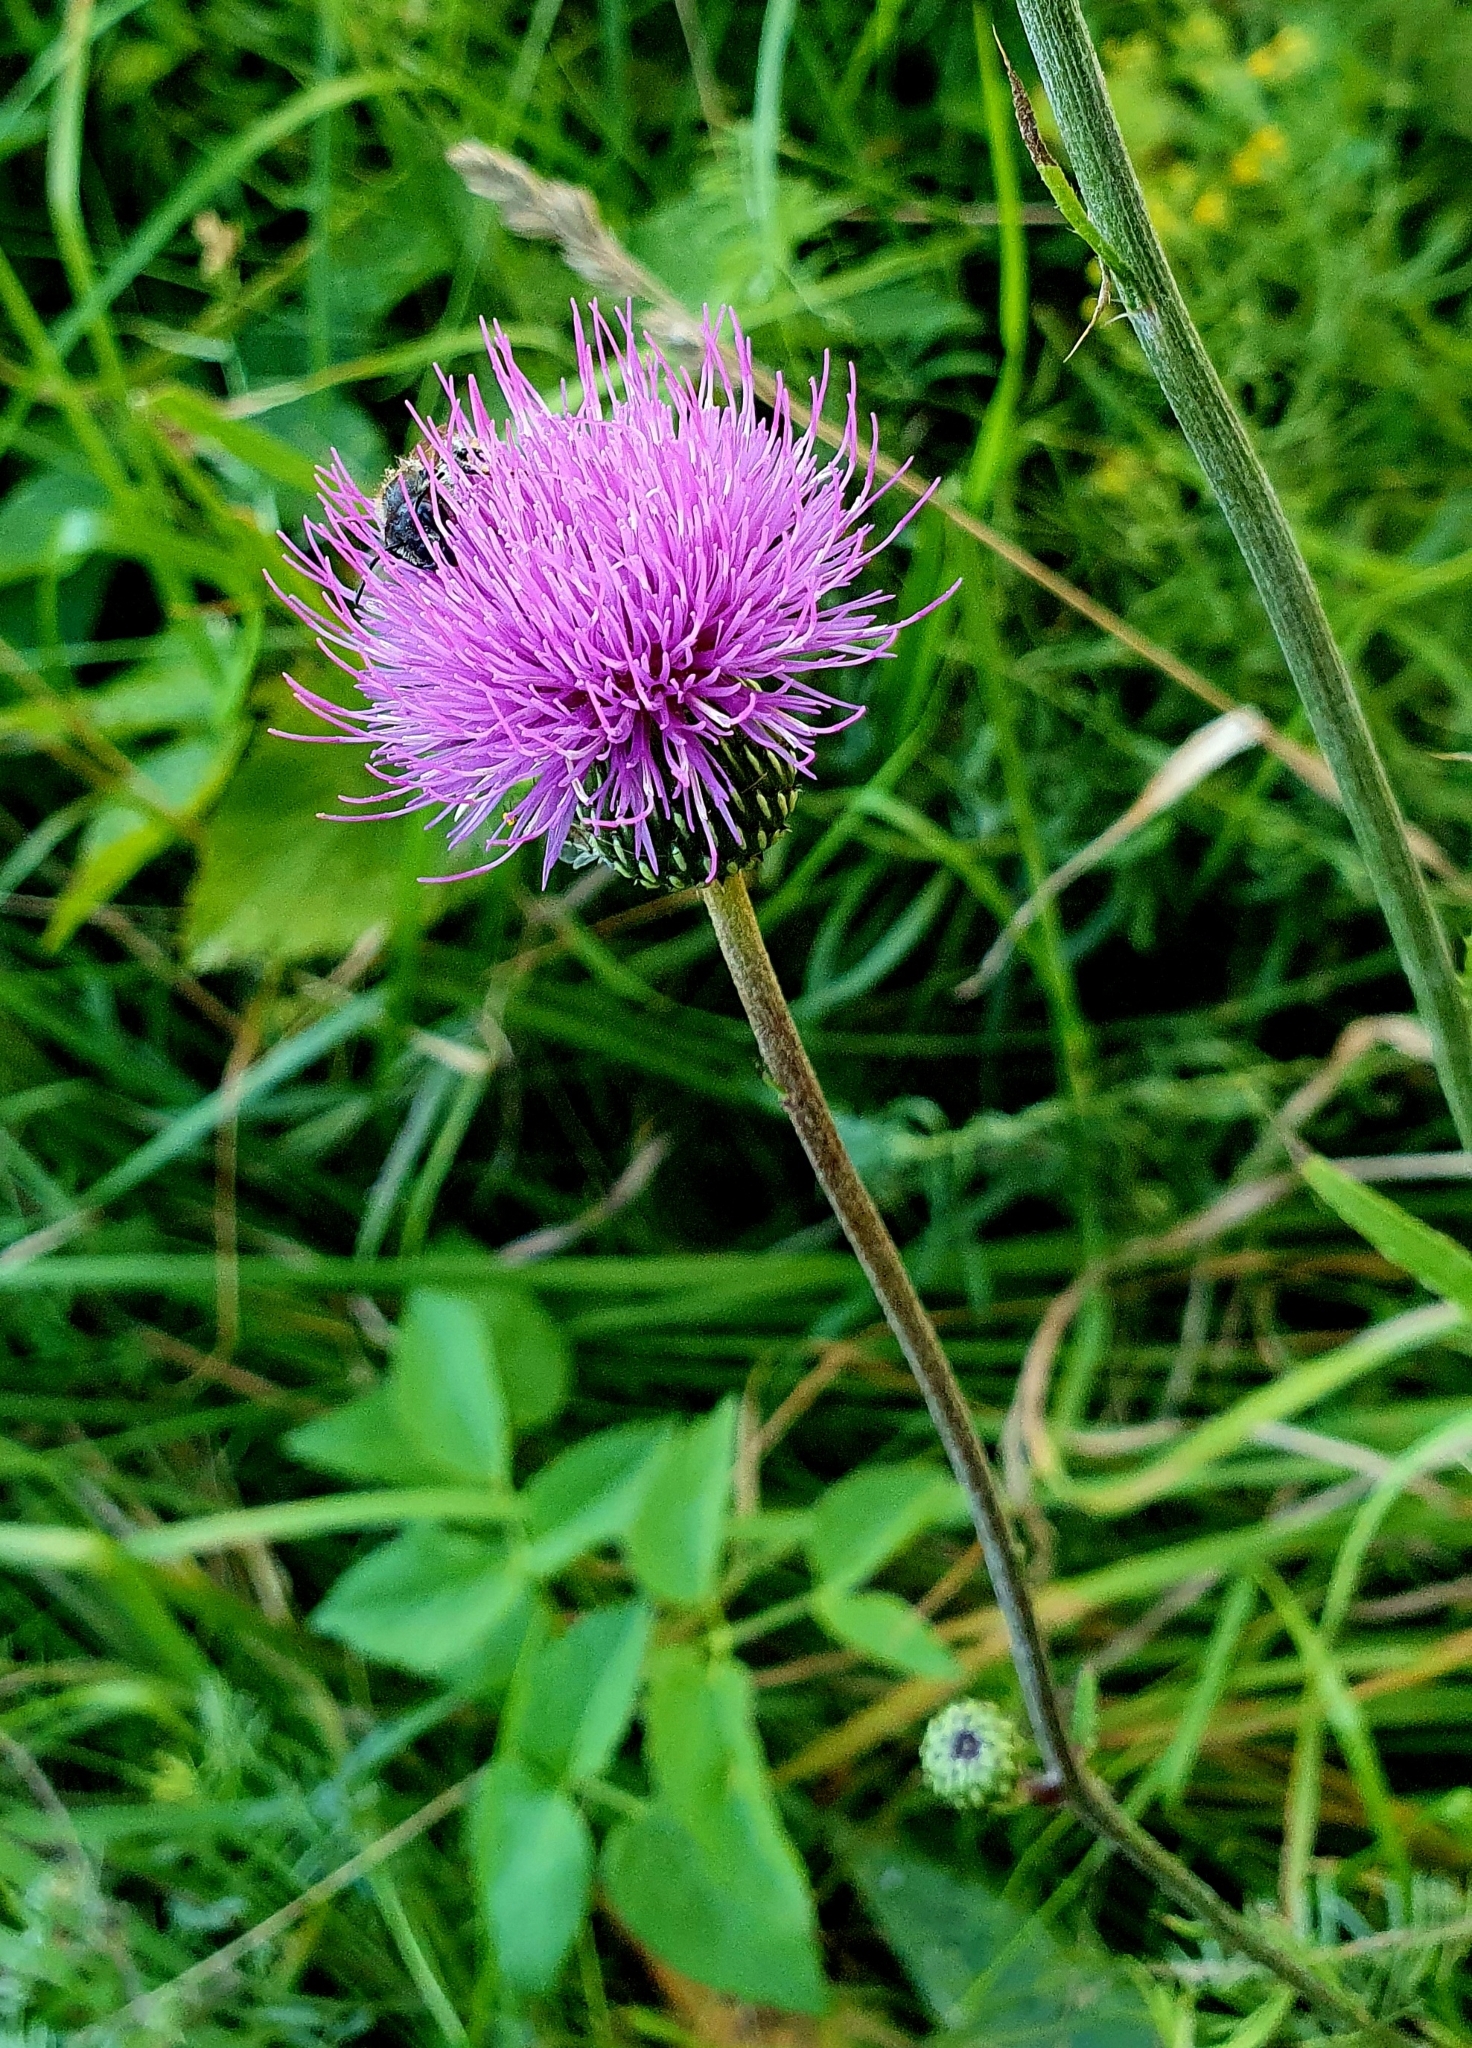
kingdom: Plantae
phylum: Tracheophyta
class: Magnoliopsida
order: Asterales
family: Asteraceae
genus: Cirsium
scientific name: Cirsium canum
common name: Queen anne's thistle
